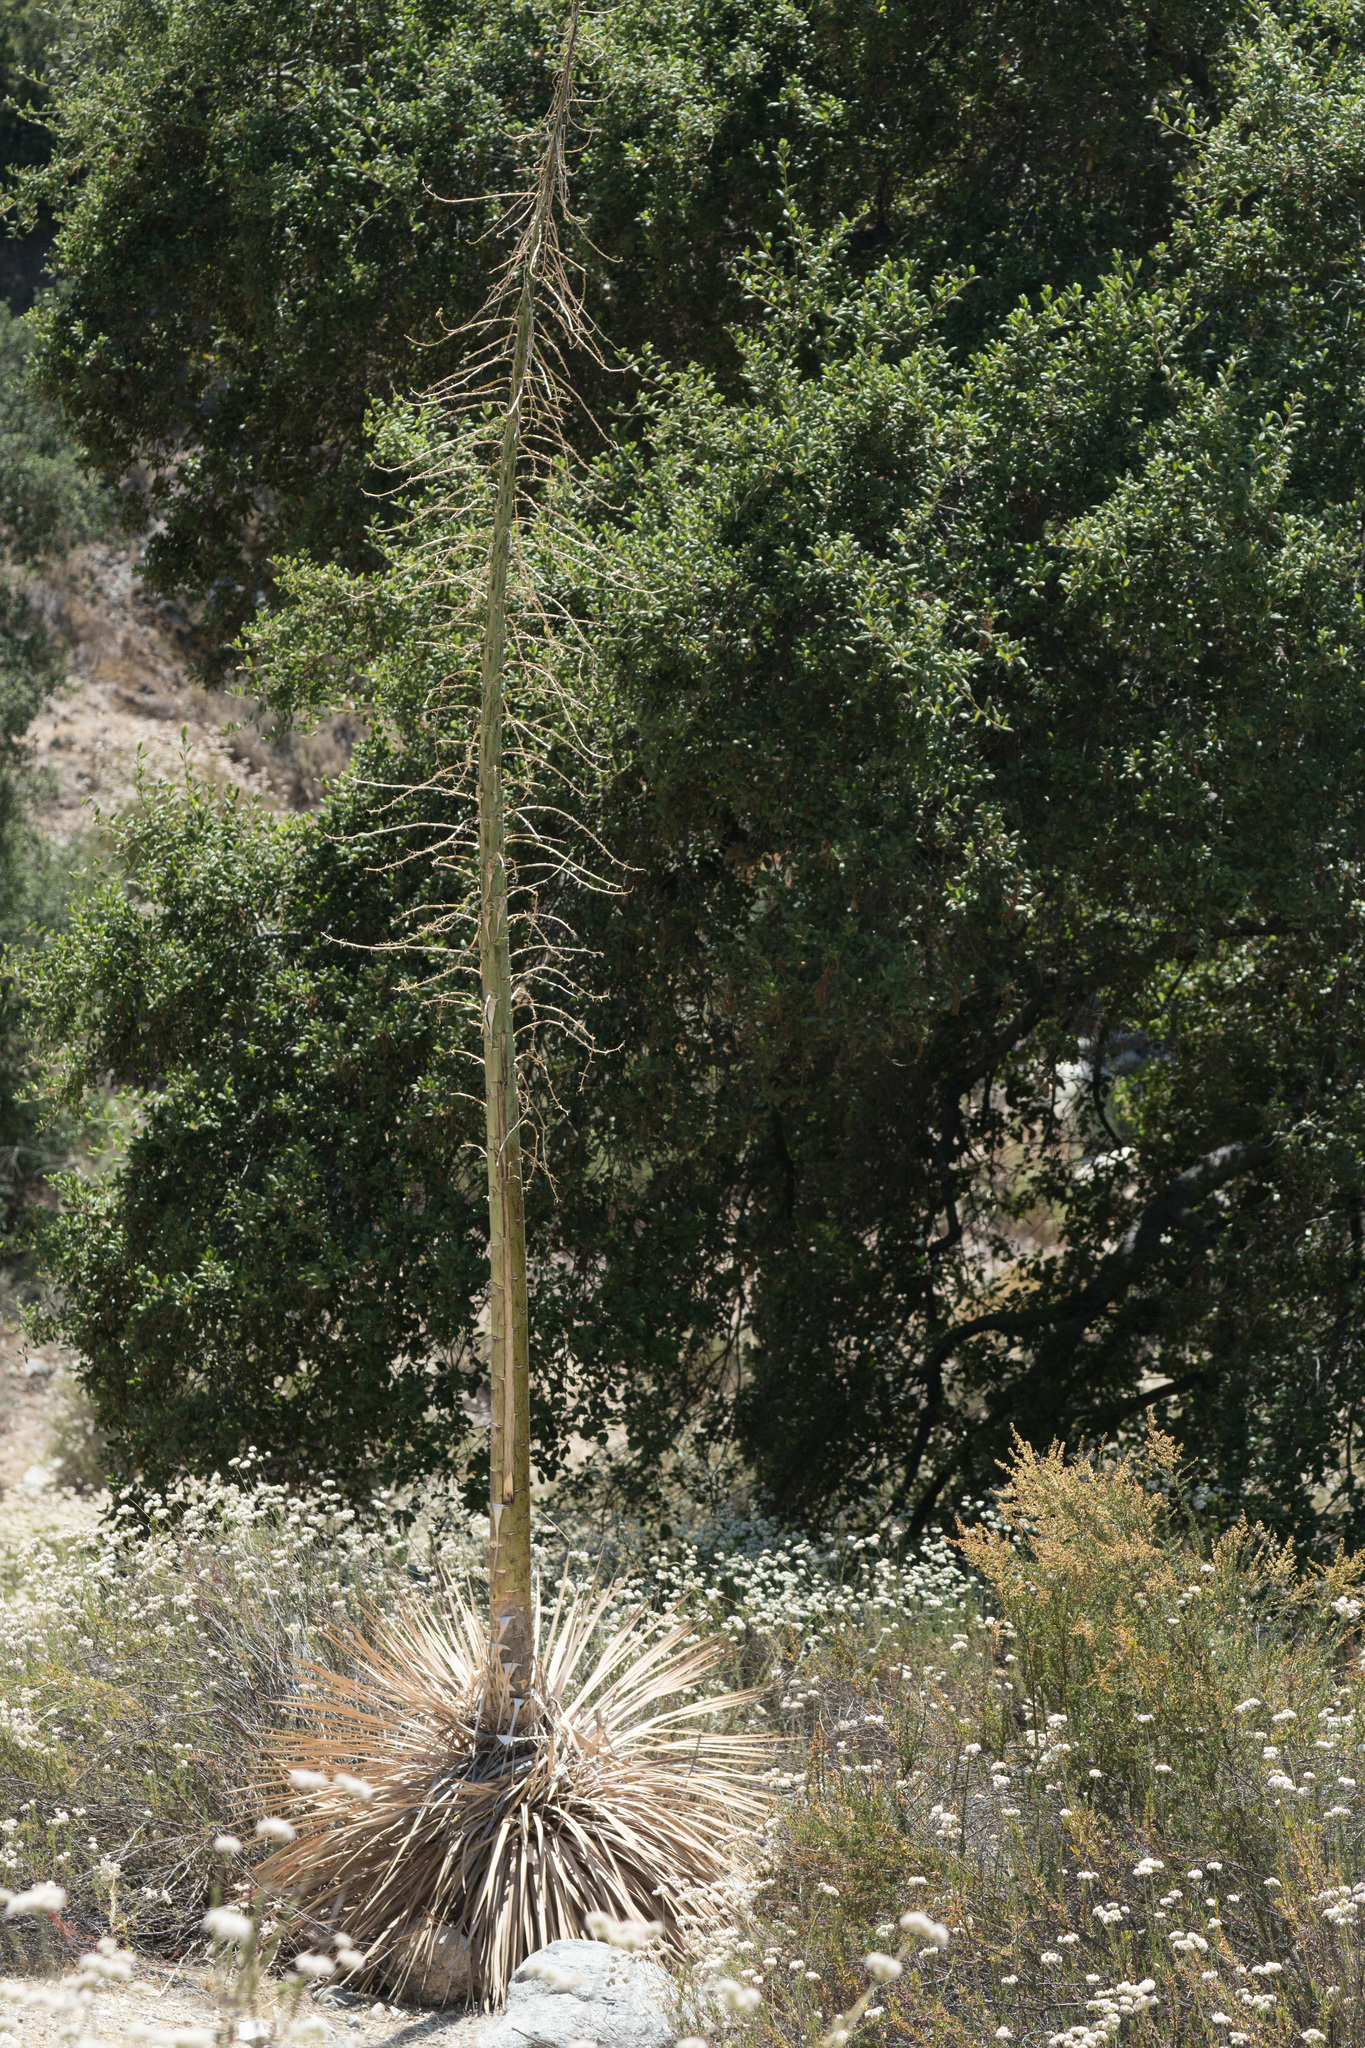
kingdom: Plantae
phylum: Tracheophyta
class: Liliopsida
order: Asparagales
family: Asparagaceae
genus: Hesperoyucca
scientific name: Hesperoyucca whipplei
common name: Our lord's-candle
